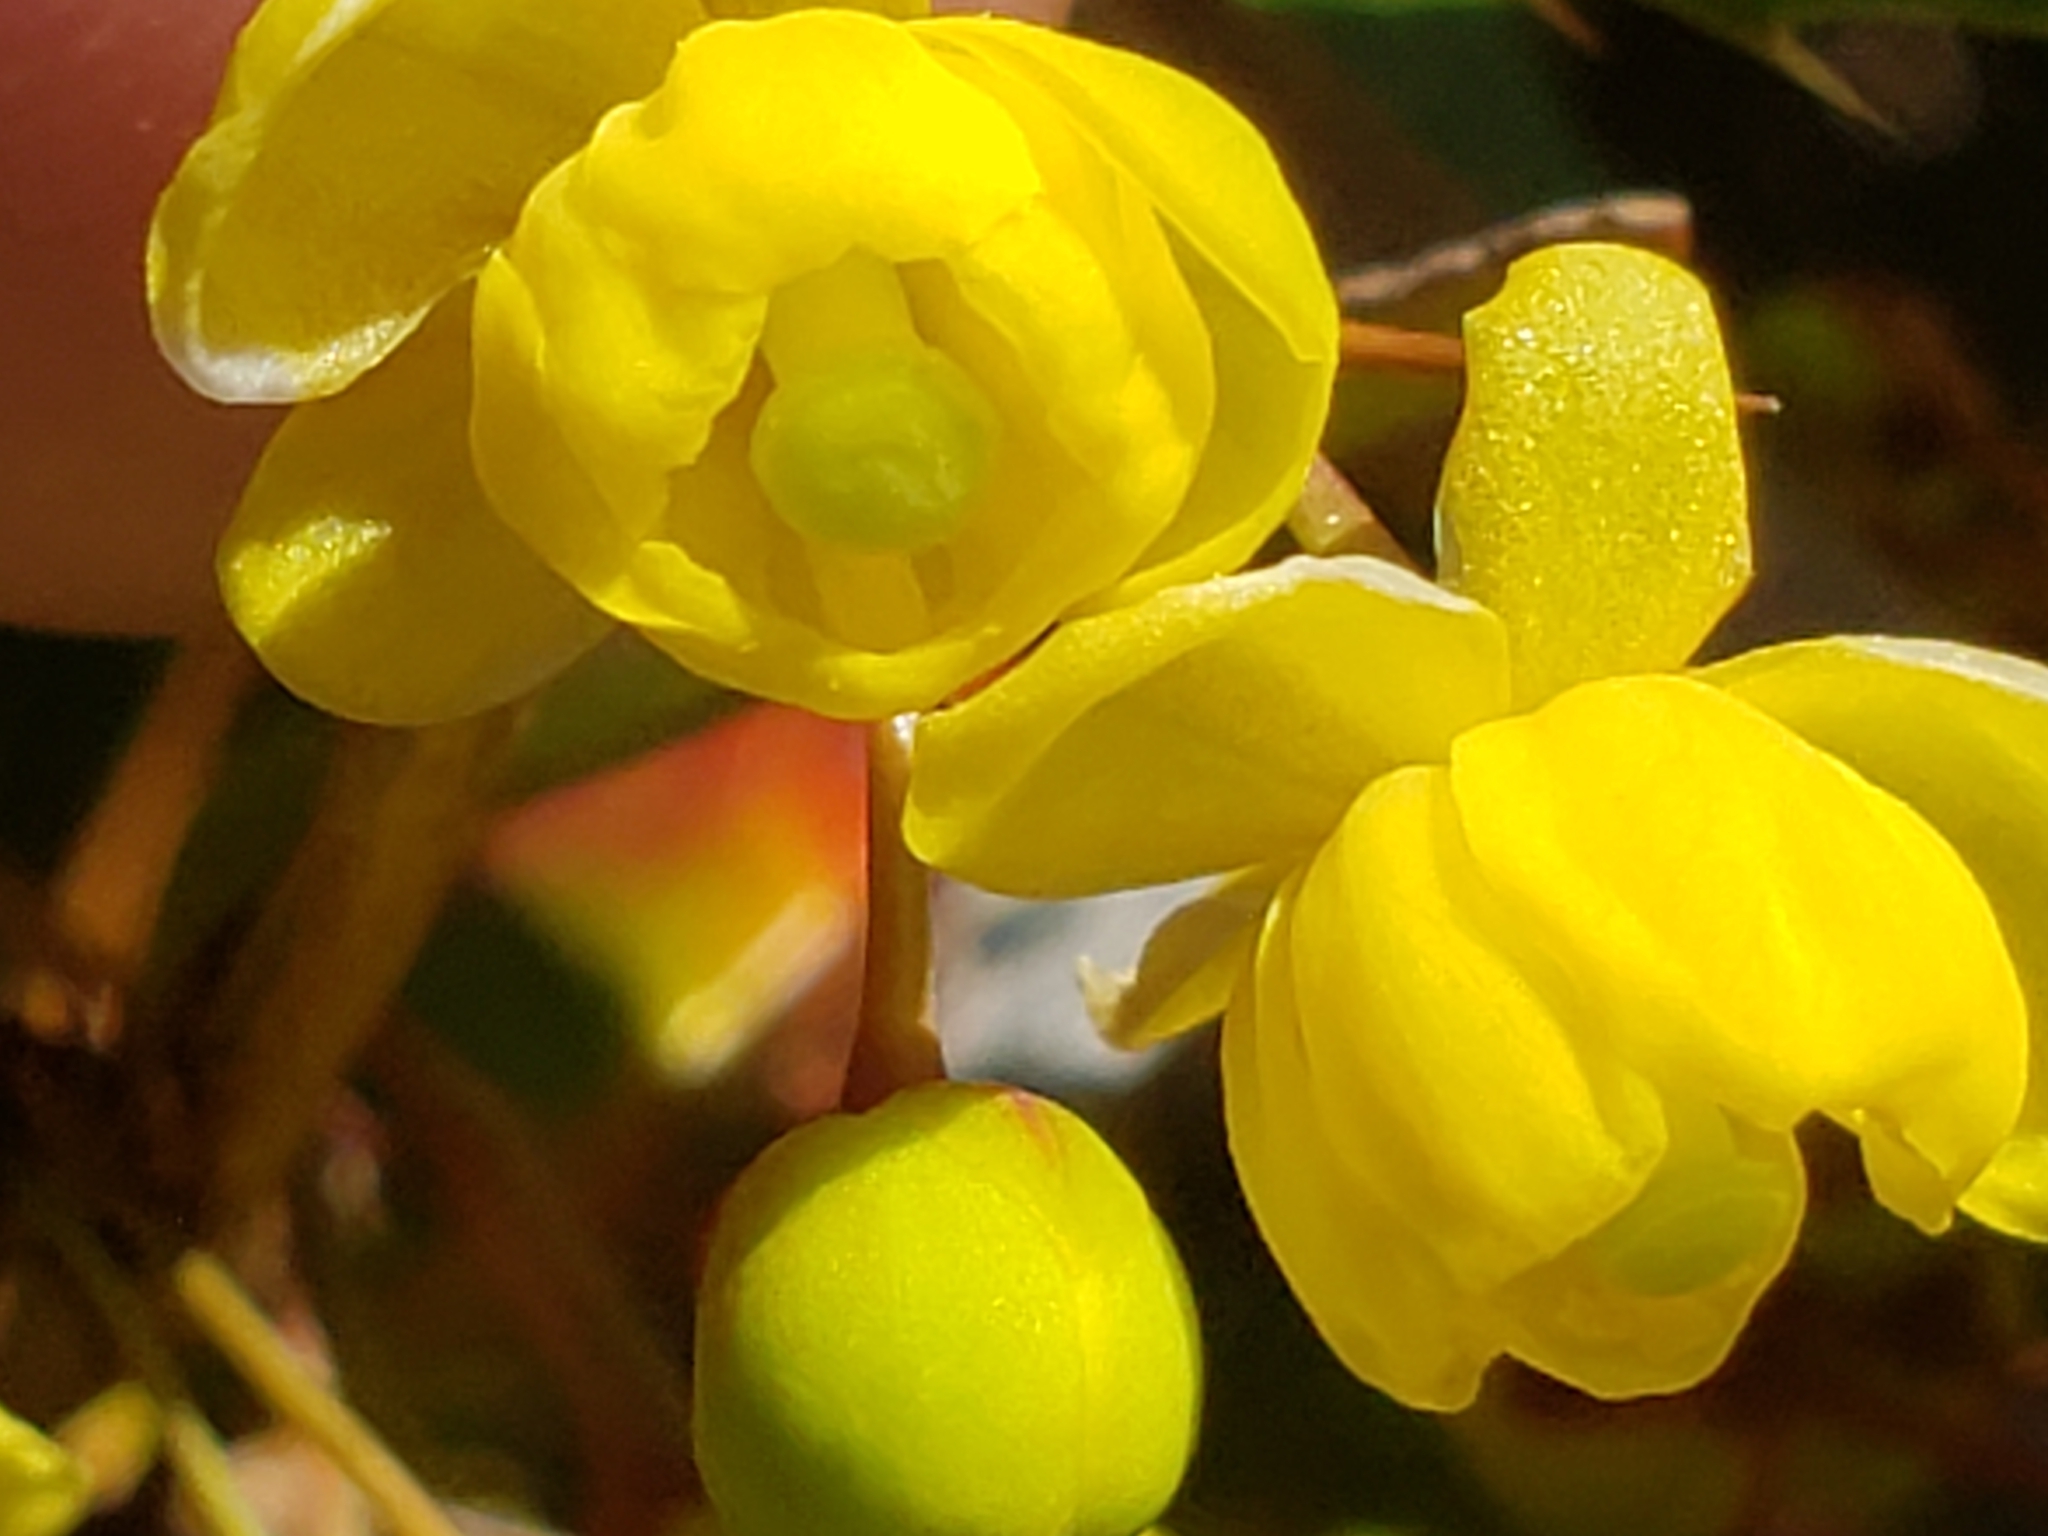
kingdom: Plantae
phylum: Tracheophyta
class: Magnoliopsida
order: Ranunculales
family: Berberidaceae
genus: Berberis
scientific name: Berberis julianae
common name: Wintergreen barberry
